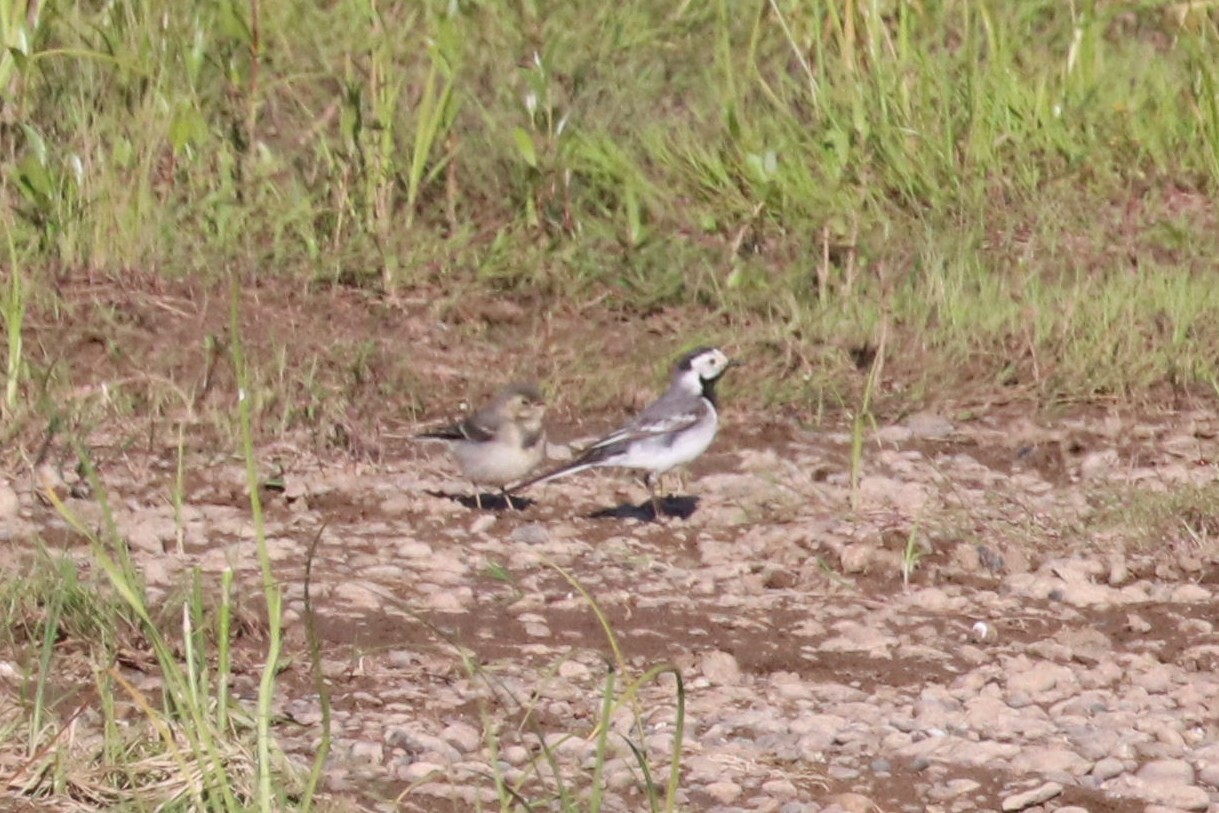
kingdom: Animalia
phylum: Chordata
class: Aves
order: Passeriformes
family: Motacillidae
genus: Motacilla
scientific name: Motacilla alba
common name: White wagtail
